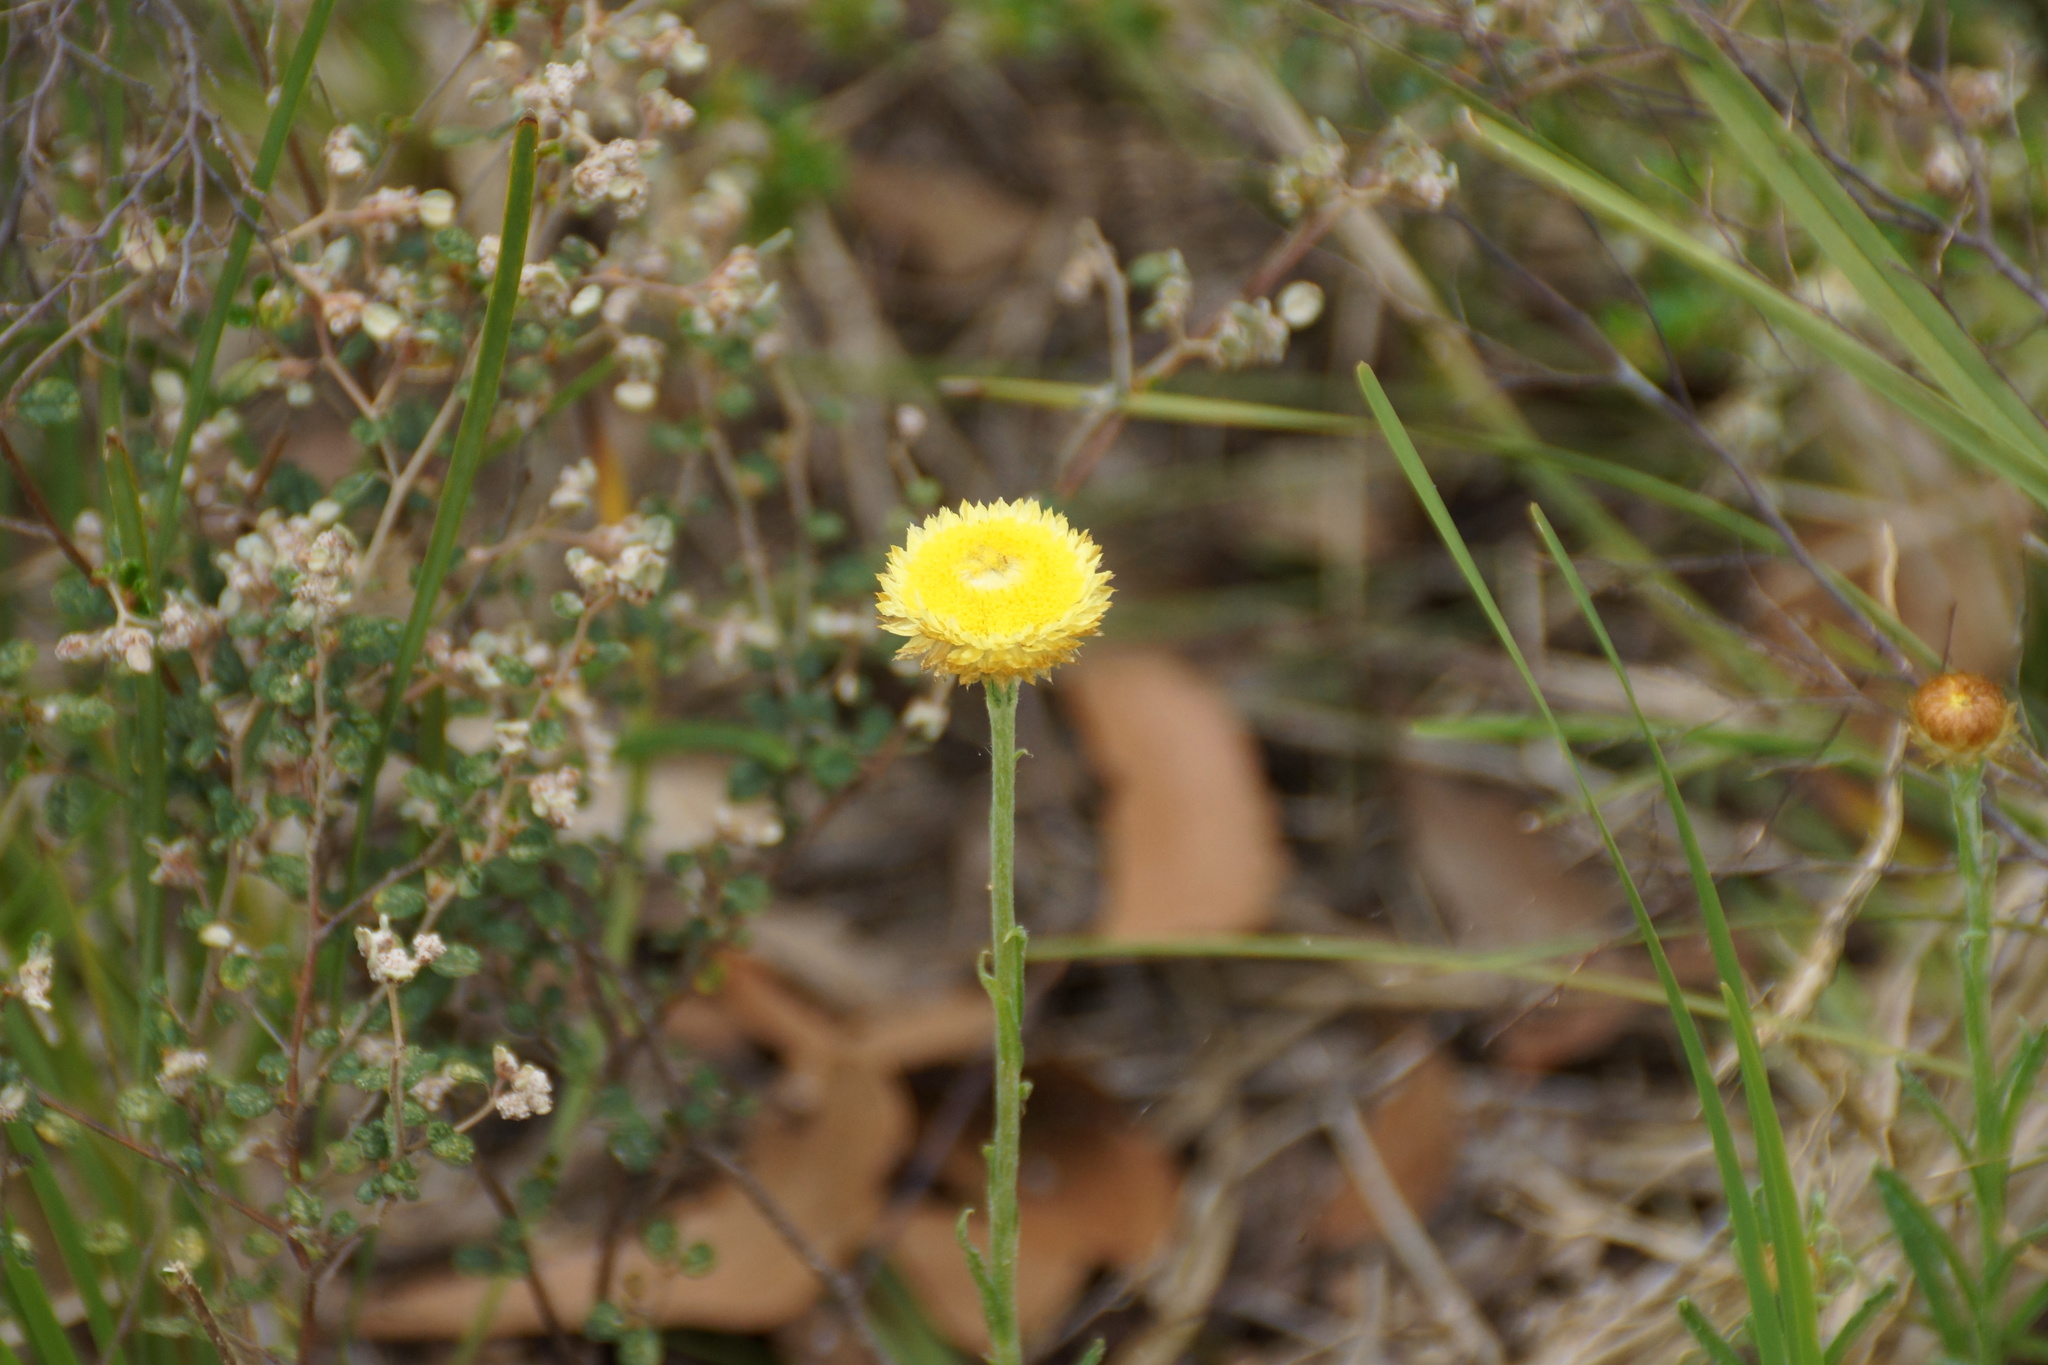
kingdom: Plantae
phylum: Tracheophyta
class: Magnoliopsida
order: Asterales
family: Asteraceae
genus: Coronidium
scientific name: Coronidium scorpioides
